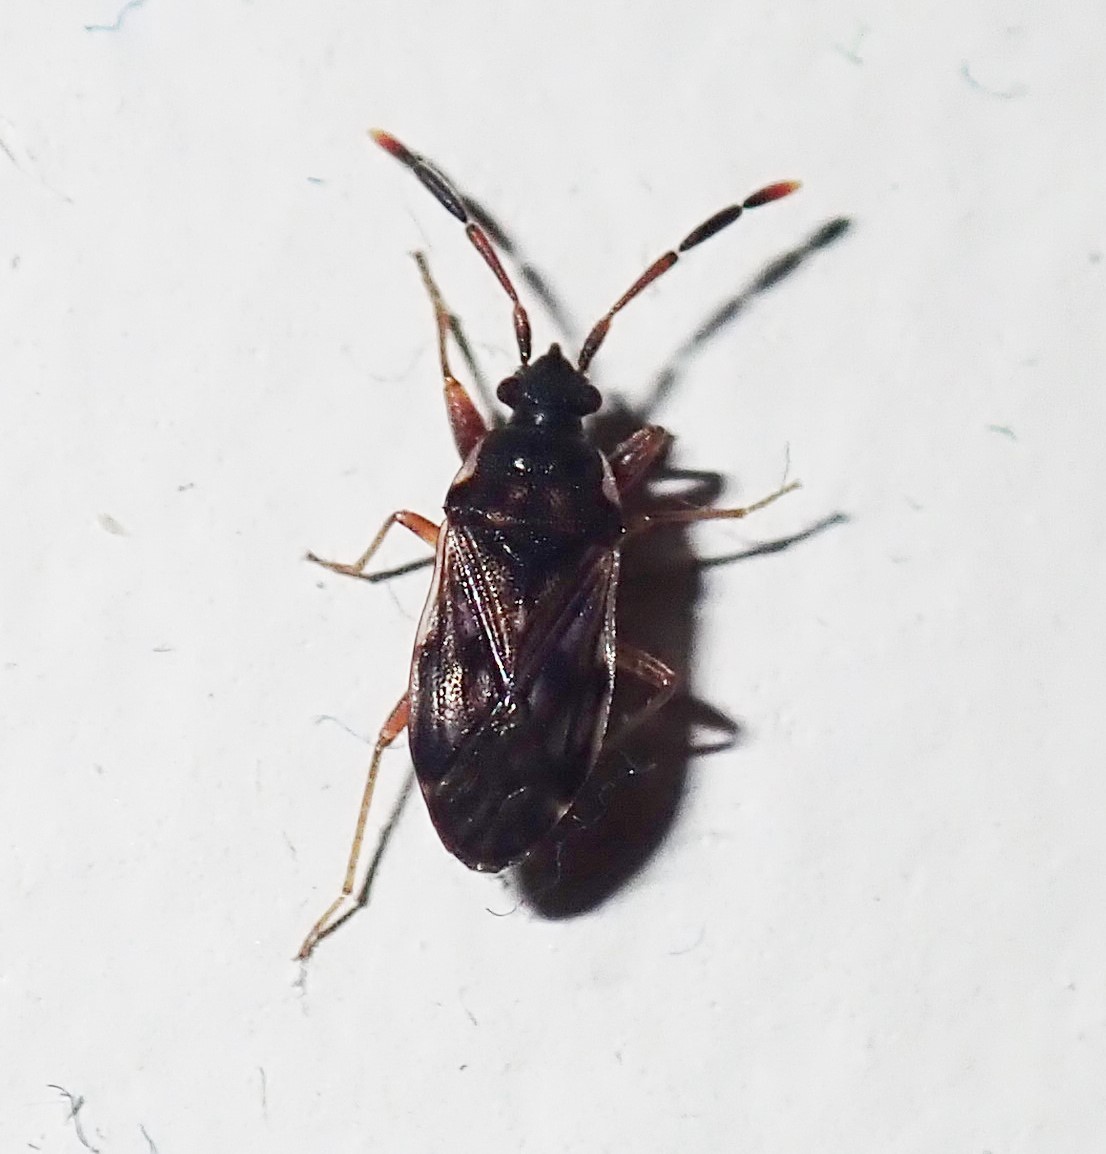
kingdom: Animalia
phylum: Arthropoda
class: Insecta
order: Hemiptera
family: Rhyparochromidae
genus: Brentiscerus
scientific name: Brentiscerus putoni
